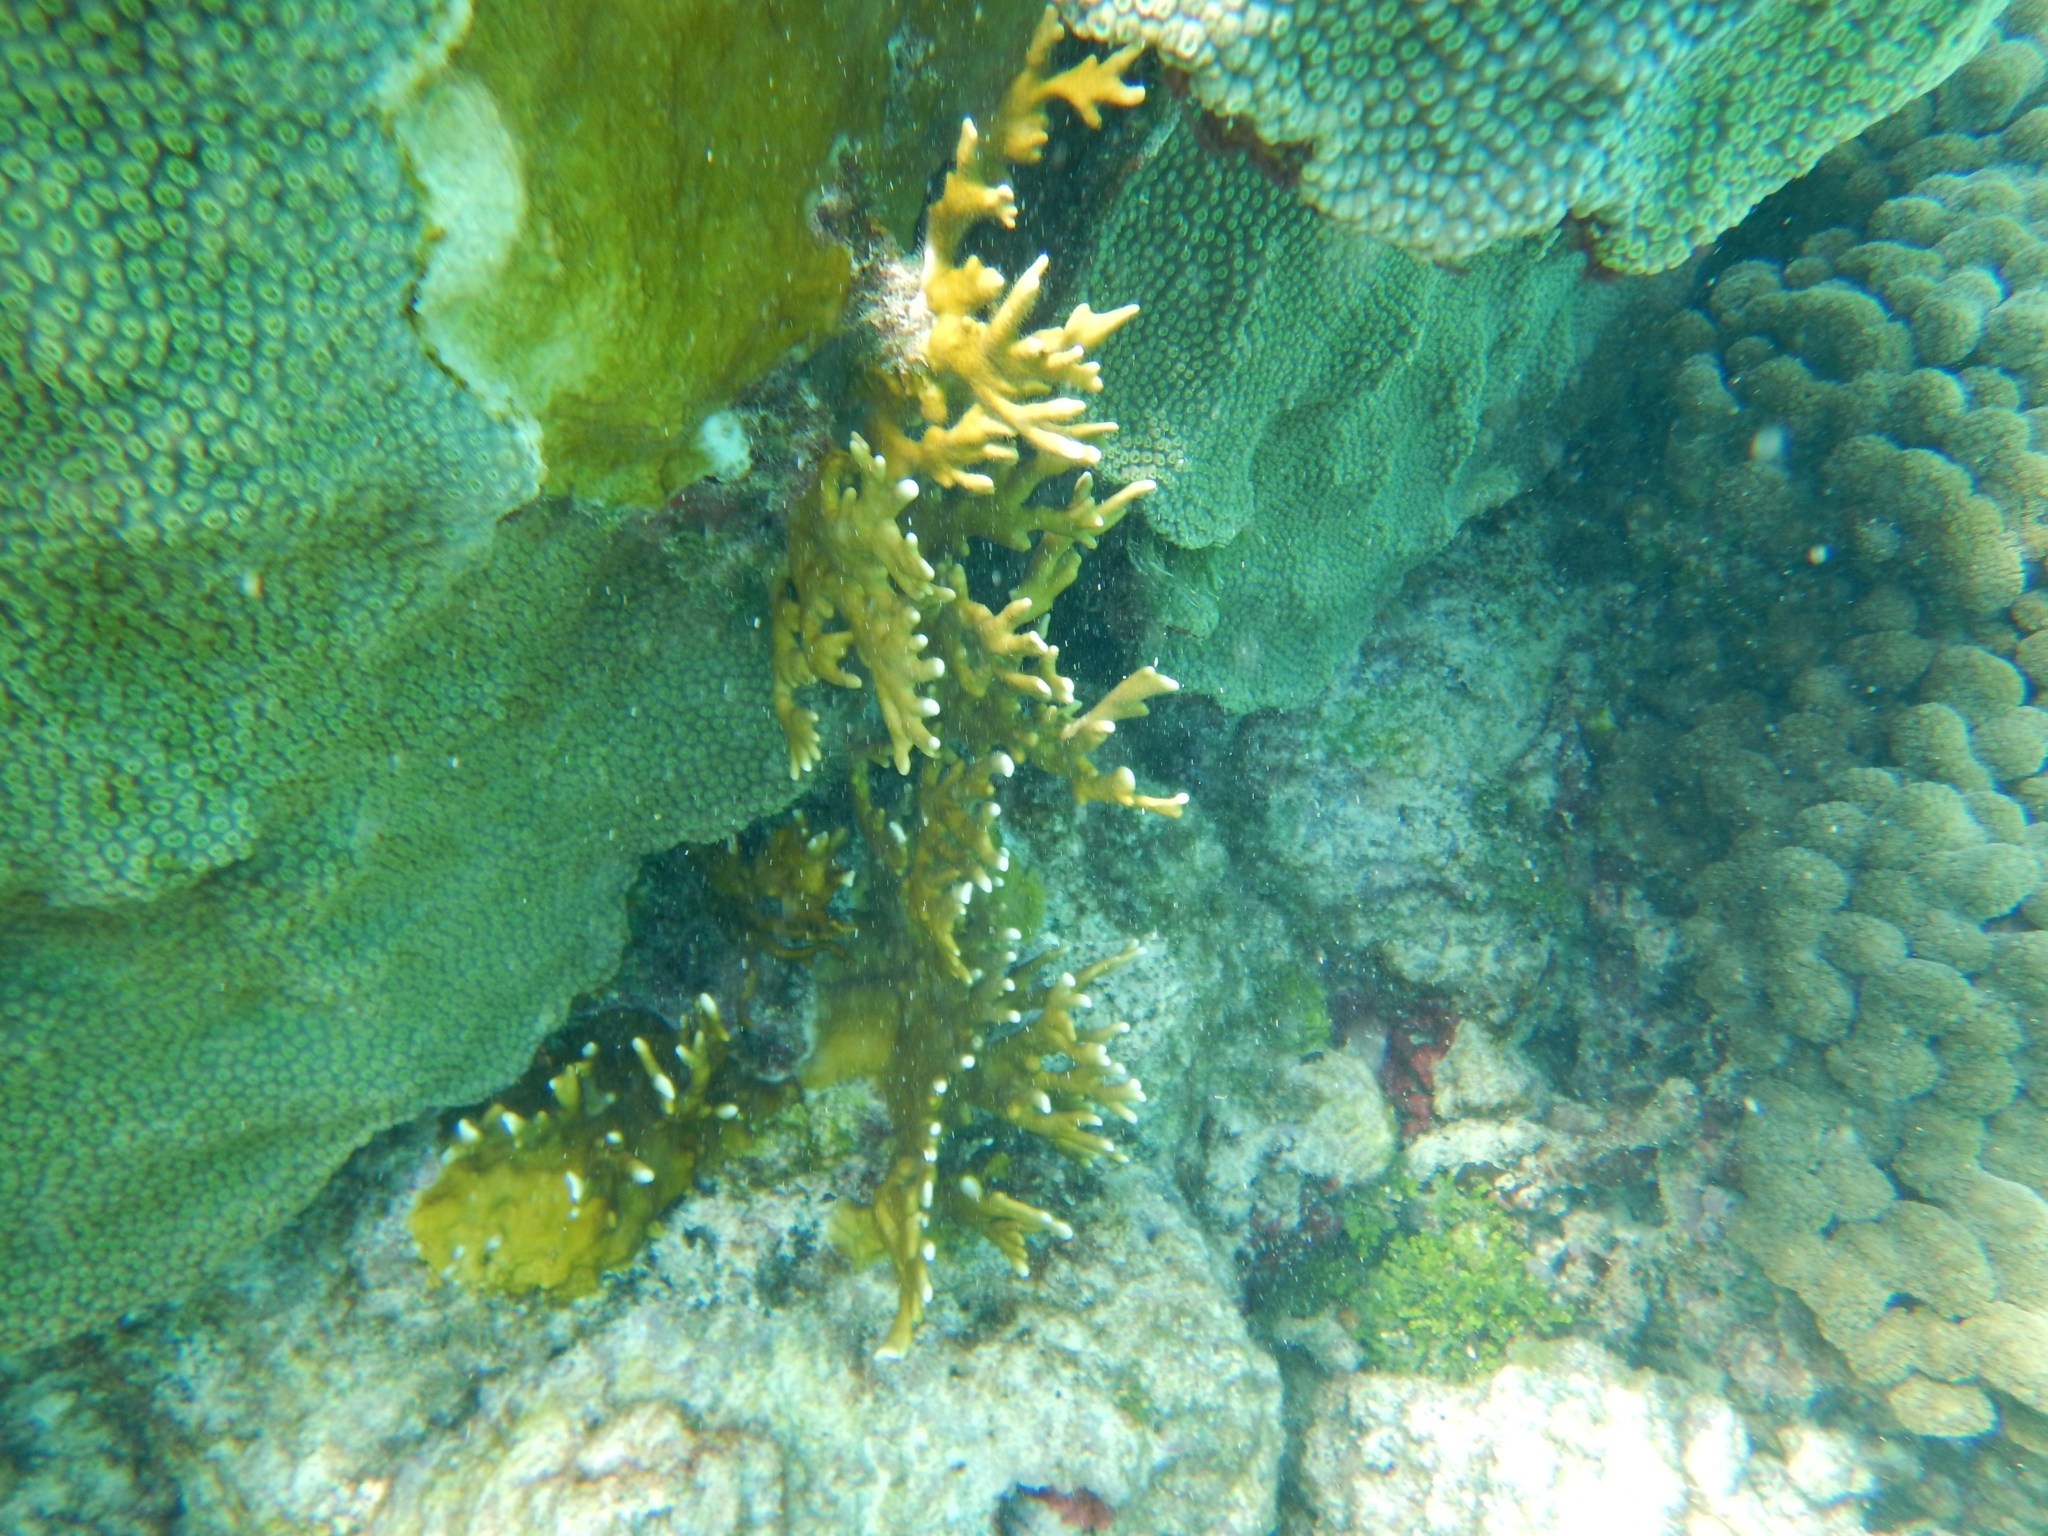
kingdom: Animalia
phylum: Cnidaria
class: Hydrozoa
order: Anthoathecata
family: Milleporidae
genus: Millepora
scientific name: Millepora alcicornis
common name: Branching fire coral
